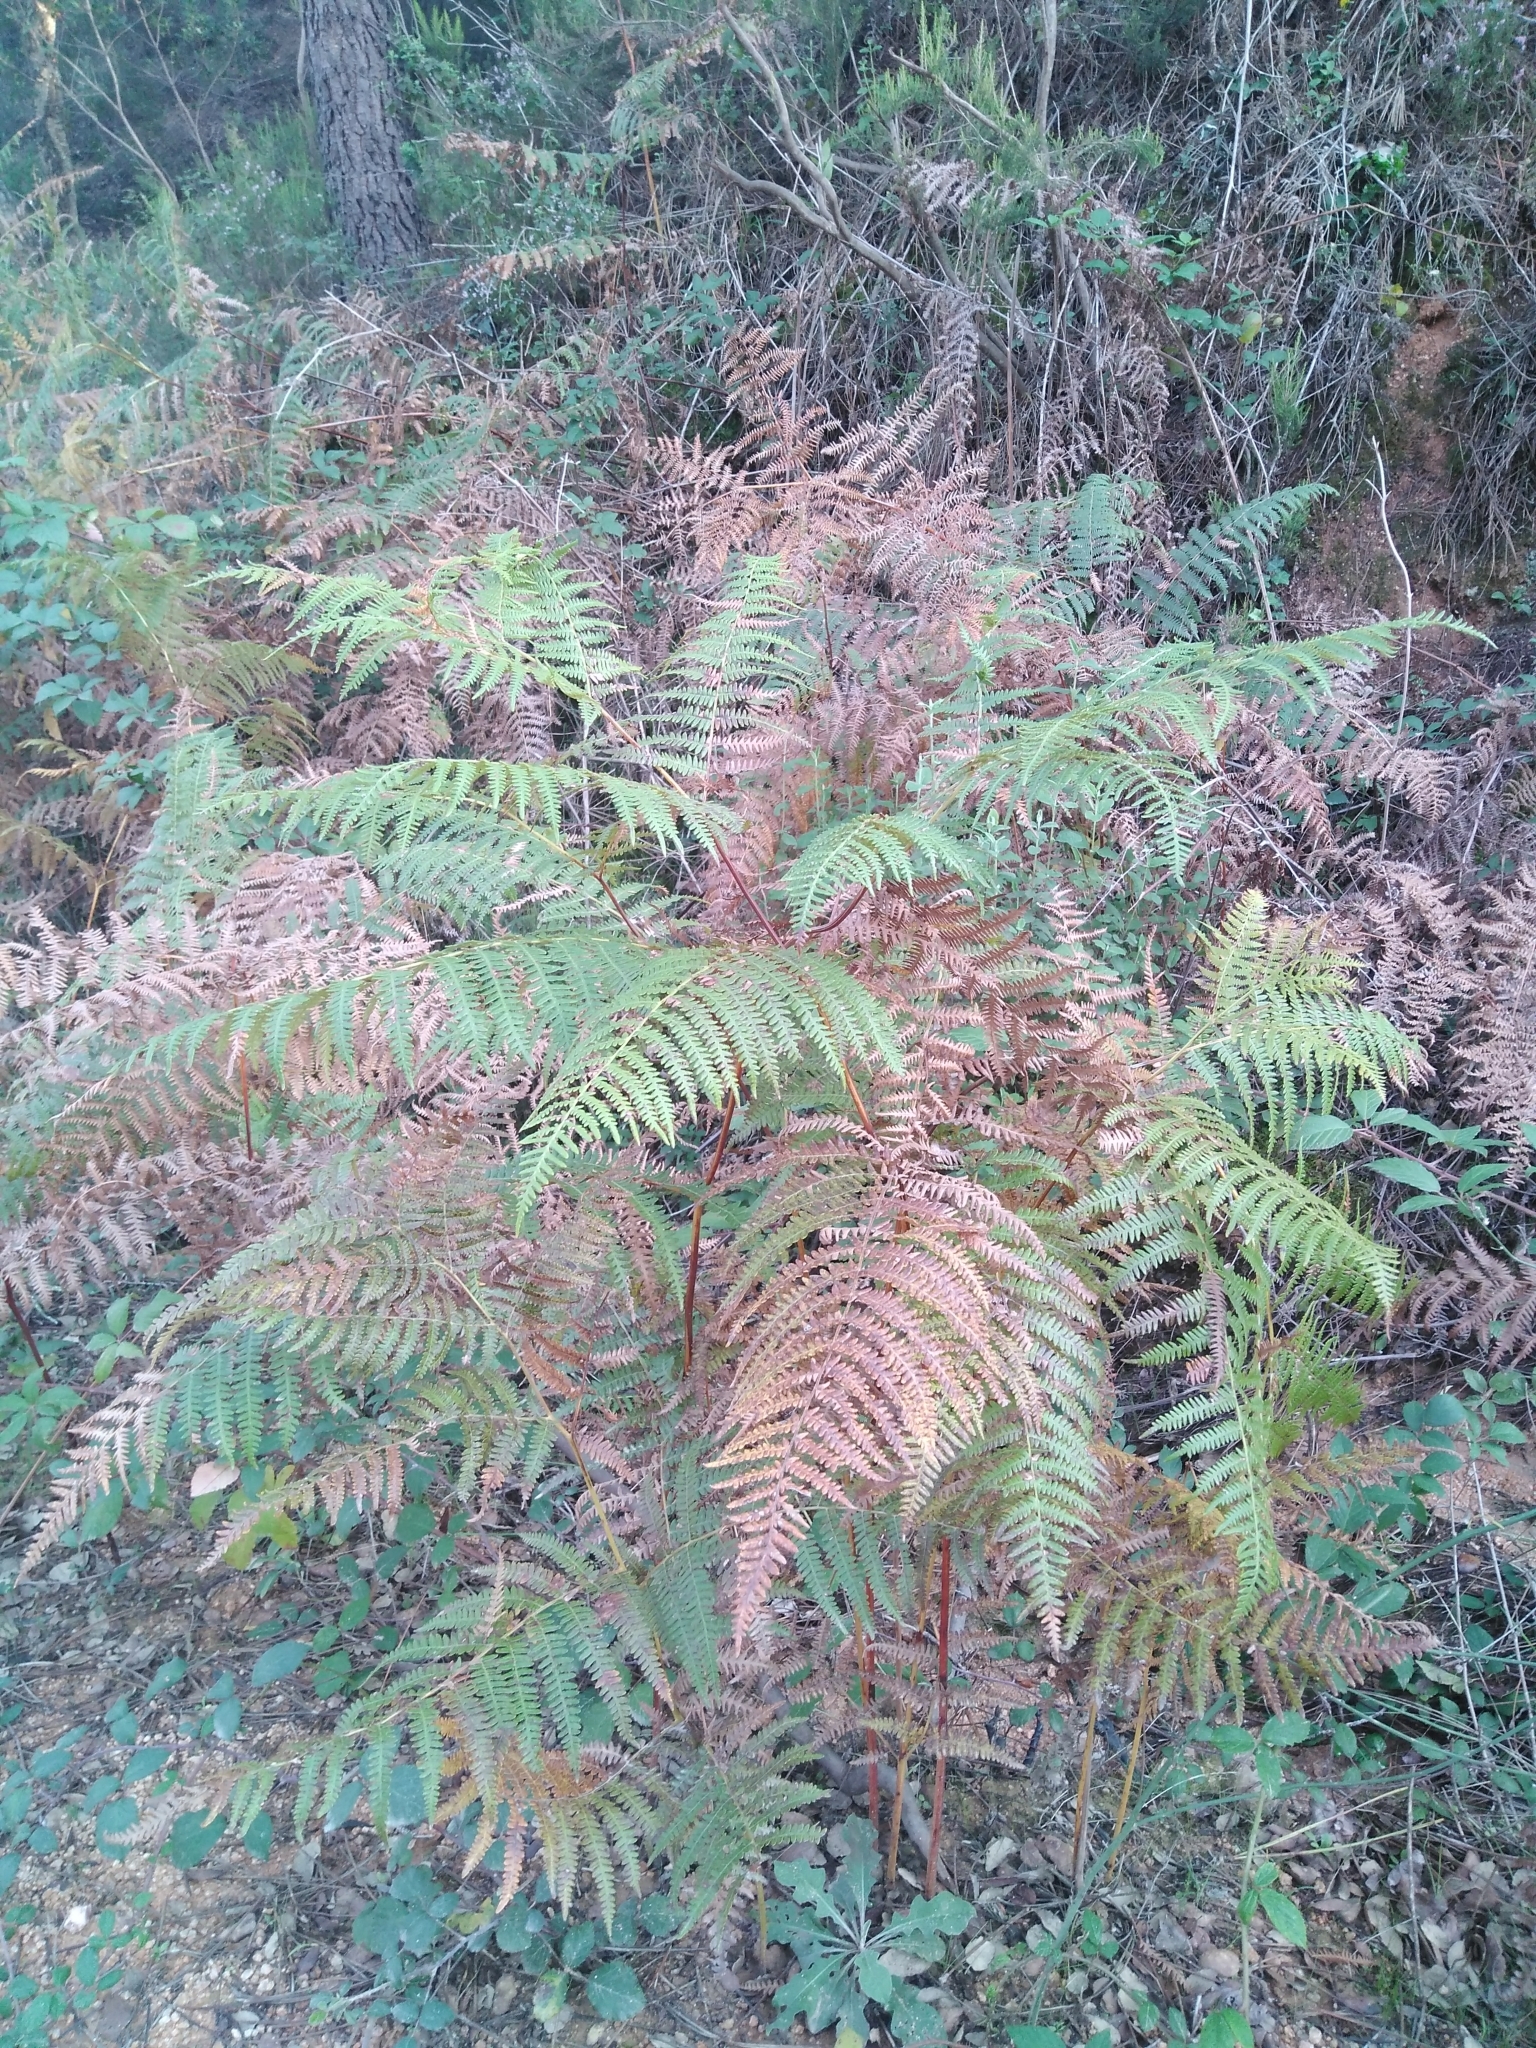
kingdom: Plantae
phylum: Tracheophyta
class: Polypodiopsida
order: Polypodiales
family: Dennstaedtiaceae
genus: Pteridium
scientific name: Pteridium aquilinum
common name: Bracken
